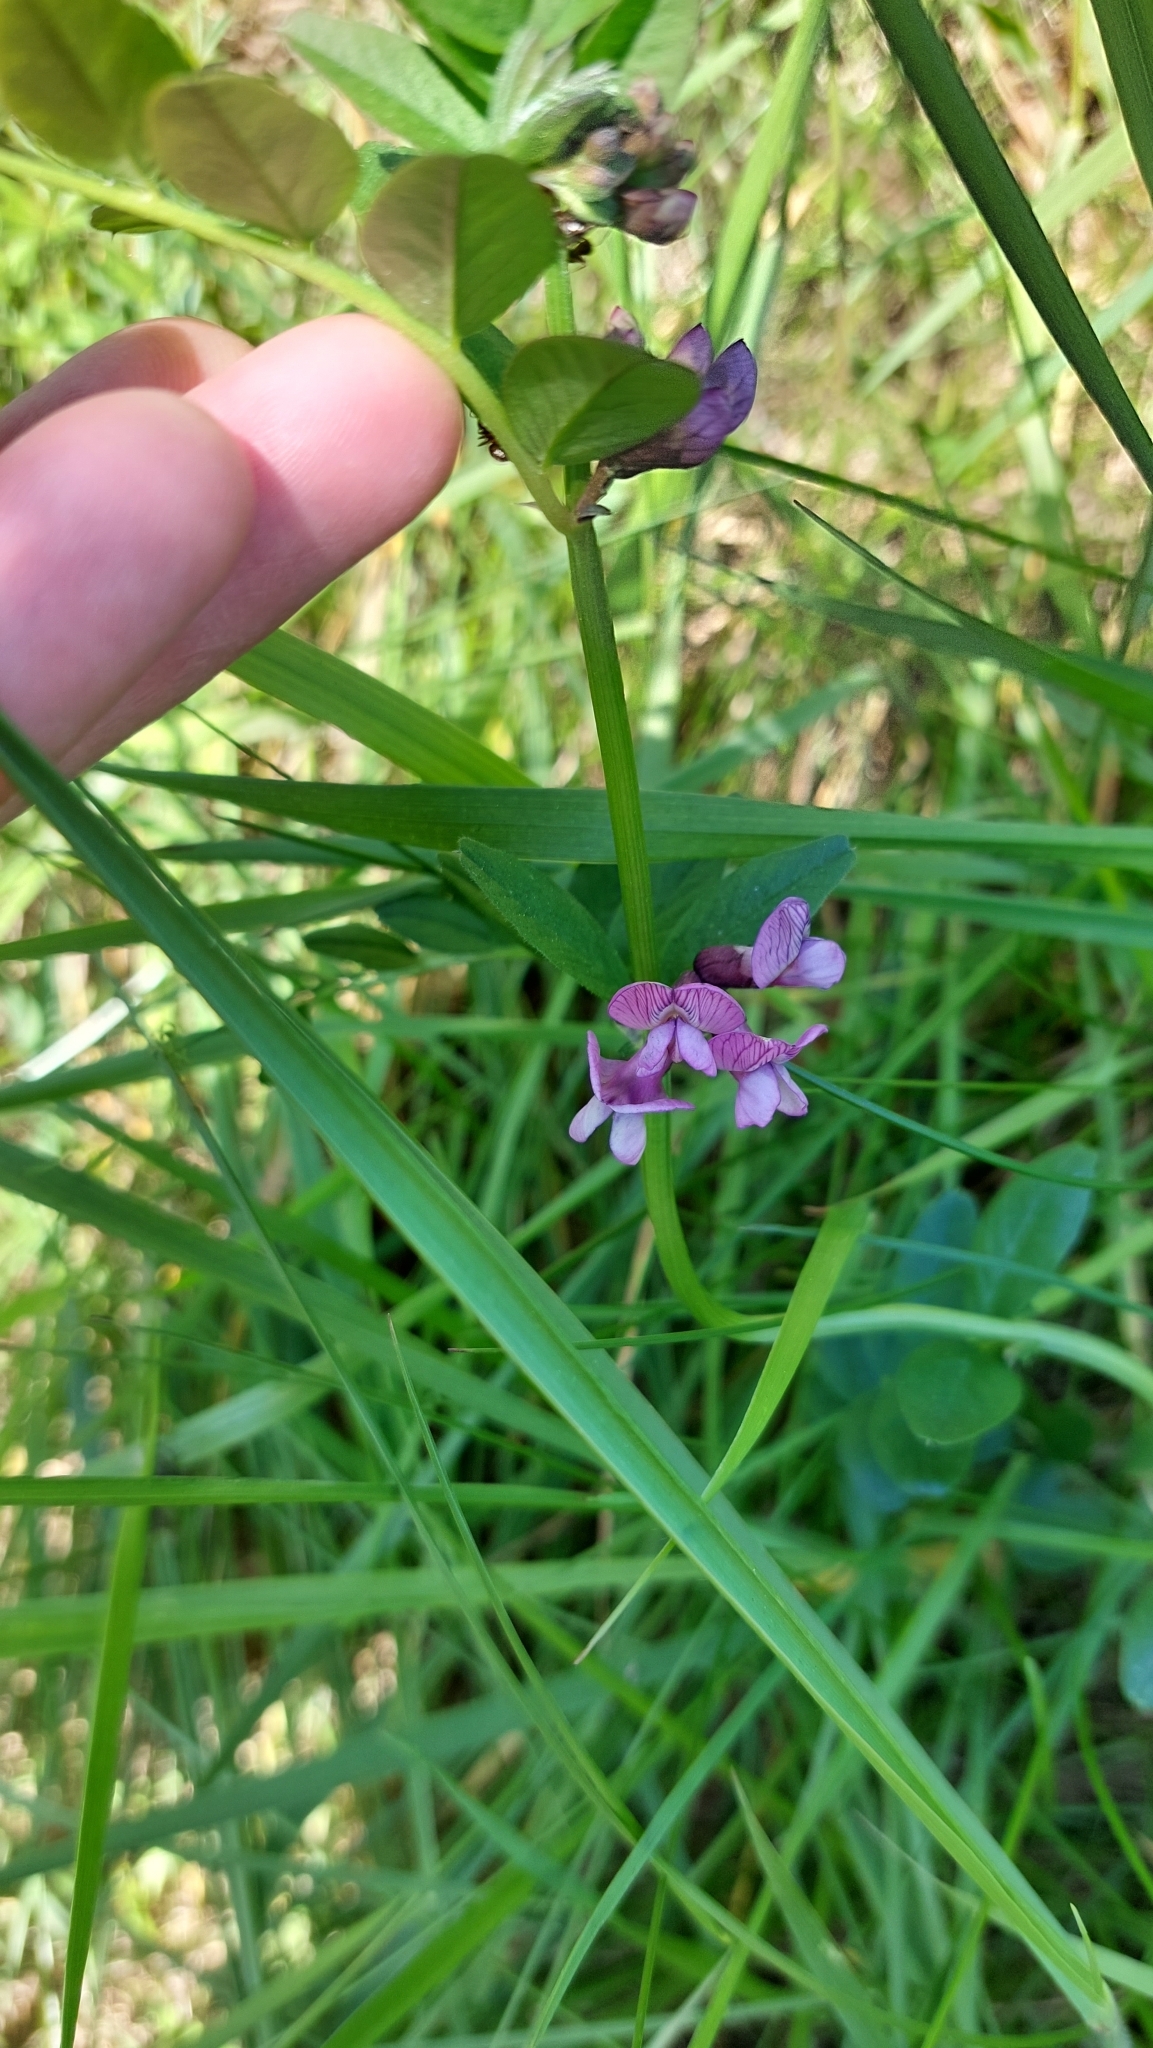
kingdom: Plantae
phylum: Tracheophyta
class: Magnoliopsida
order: Fabales
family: Fabaceae
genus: Vicia
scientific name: Vicia sepium
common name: Bush vetch
